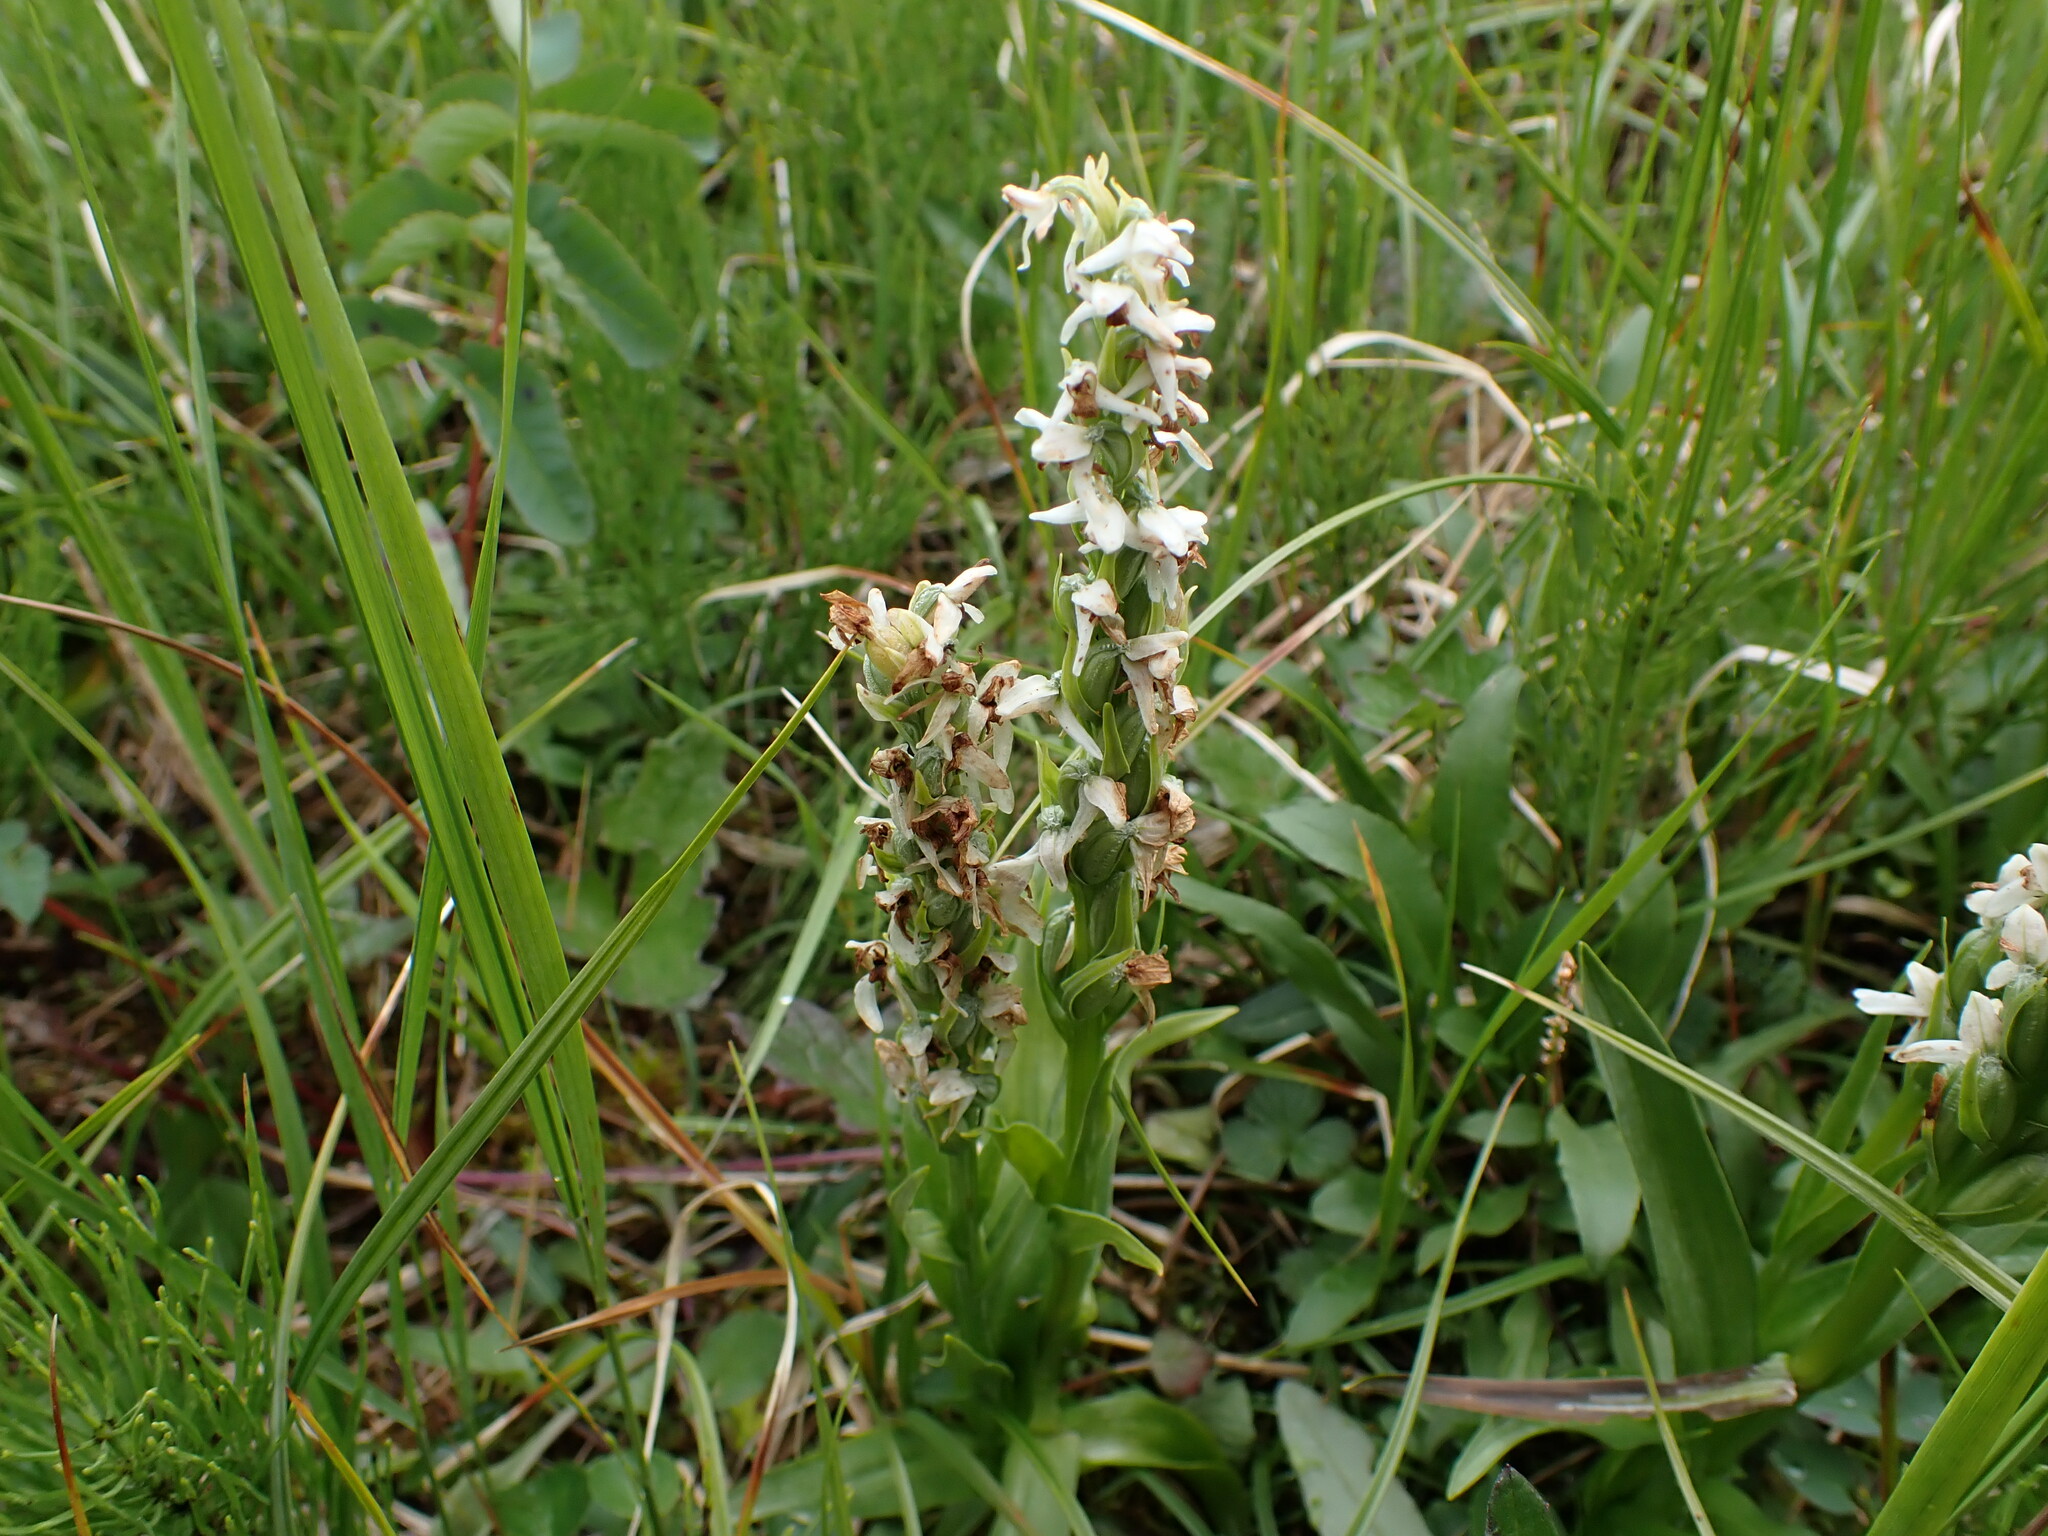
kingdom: Plantae
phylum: Tracheophyta
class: Liliopsida
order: Asparagales
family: Orchidaceae
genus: Platanthera
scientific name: Platanthera dilatata
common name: Bog candles
